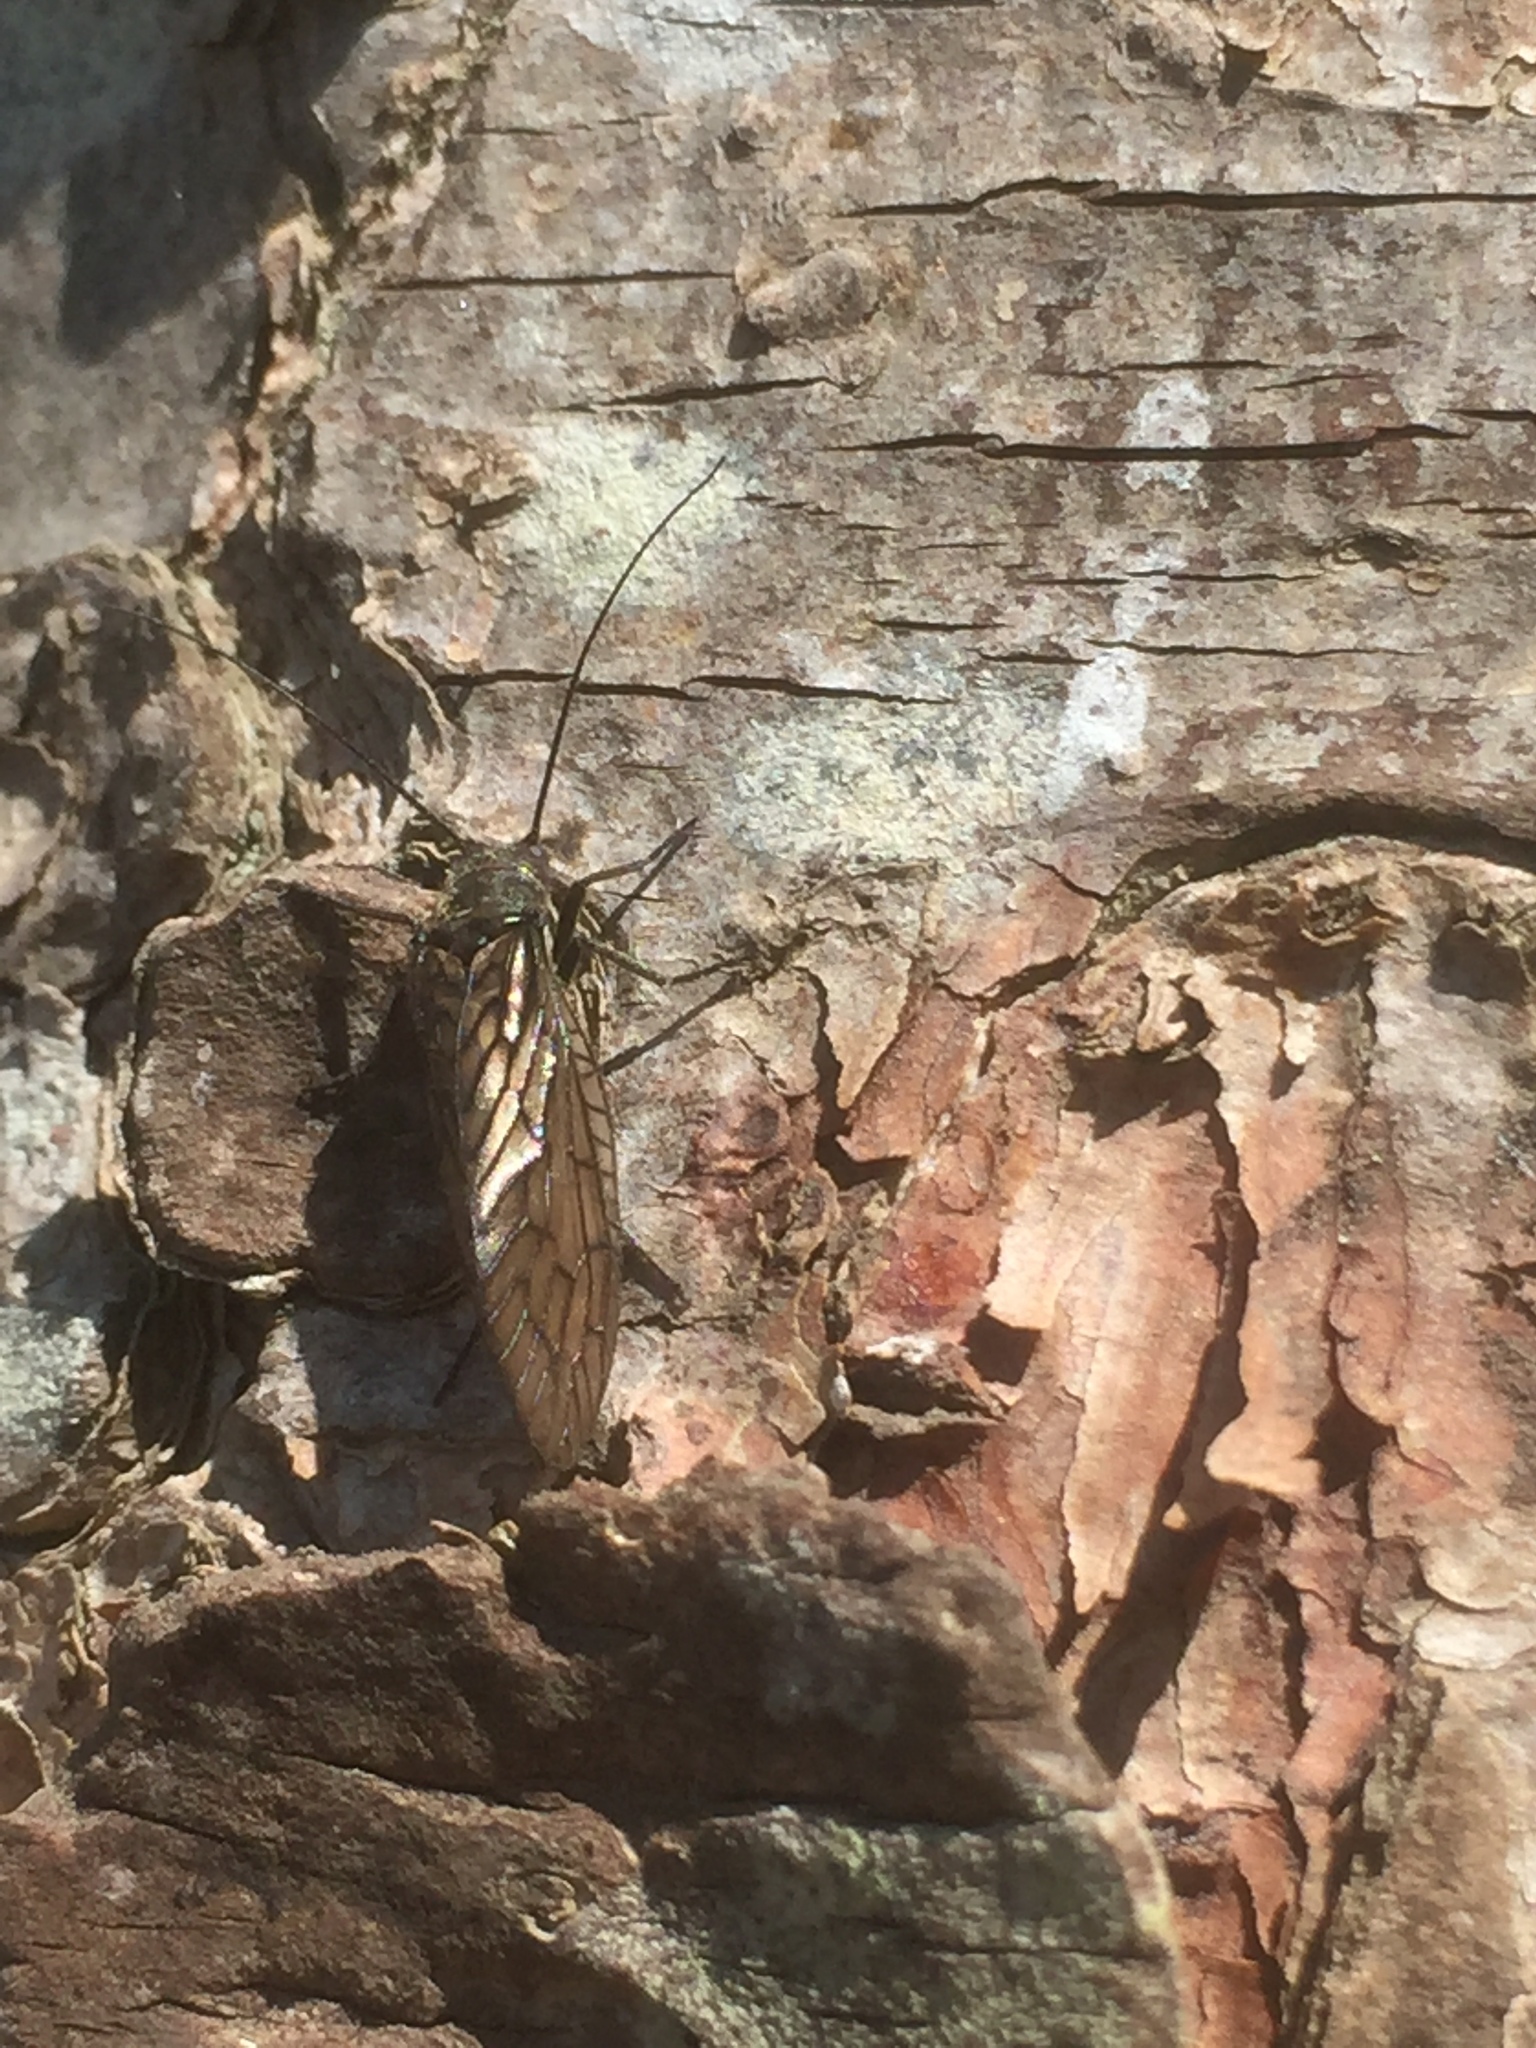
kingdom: Animalia
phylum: Arthropoda
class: Insecta
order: Megaloptera
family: Sialidae
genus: Sialis
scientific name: Sialis
